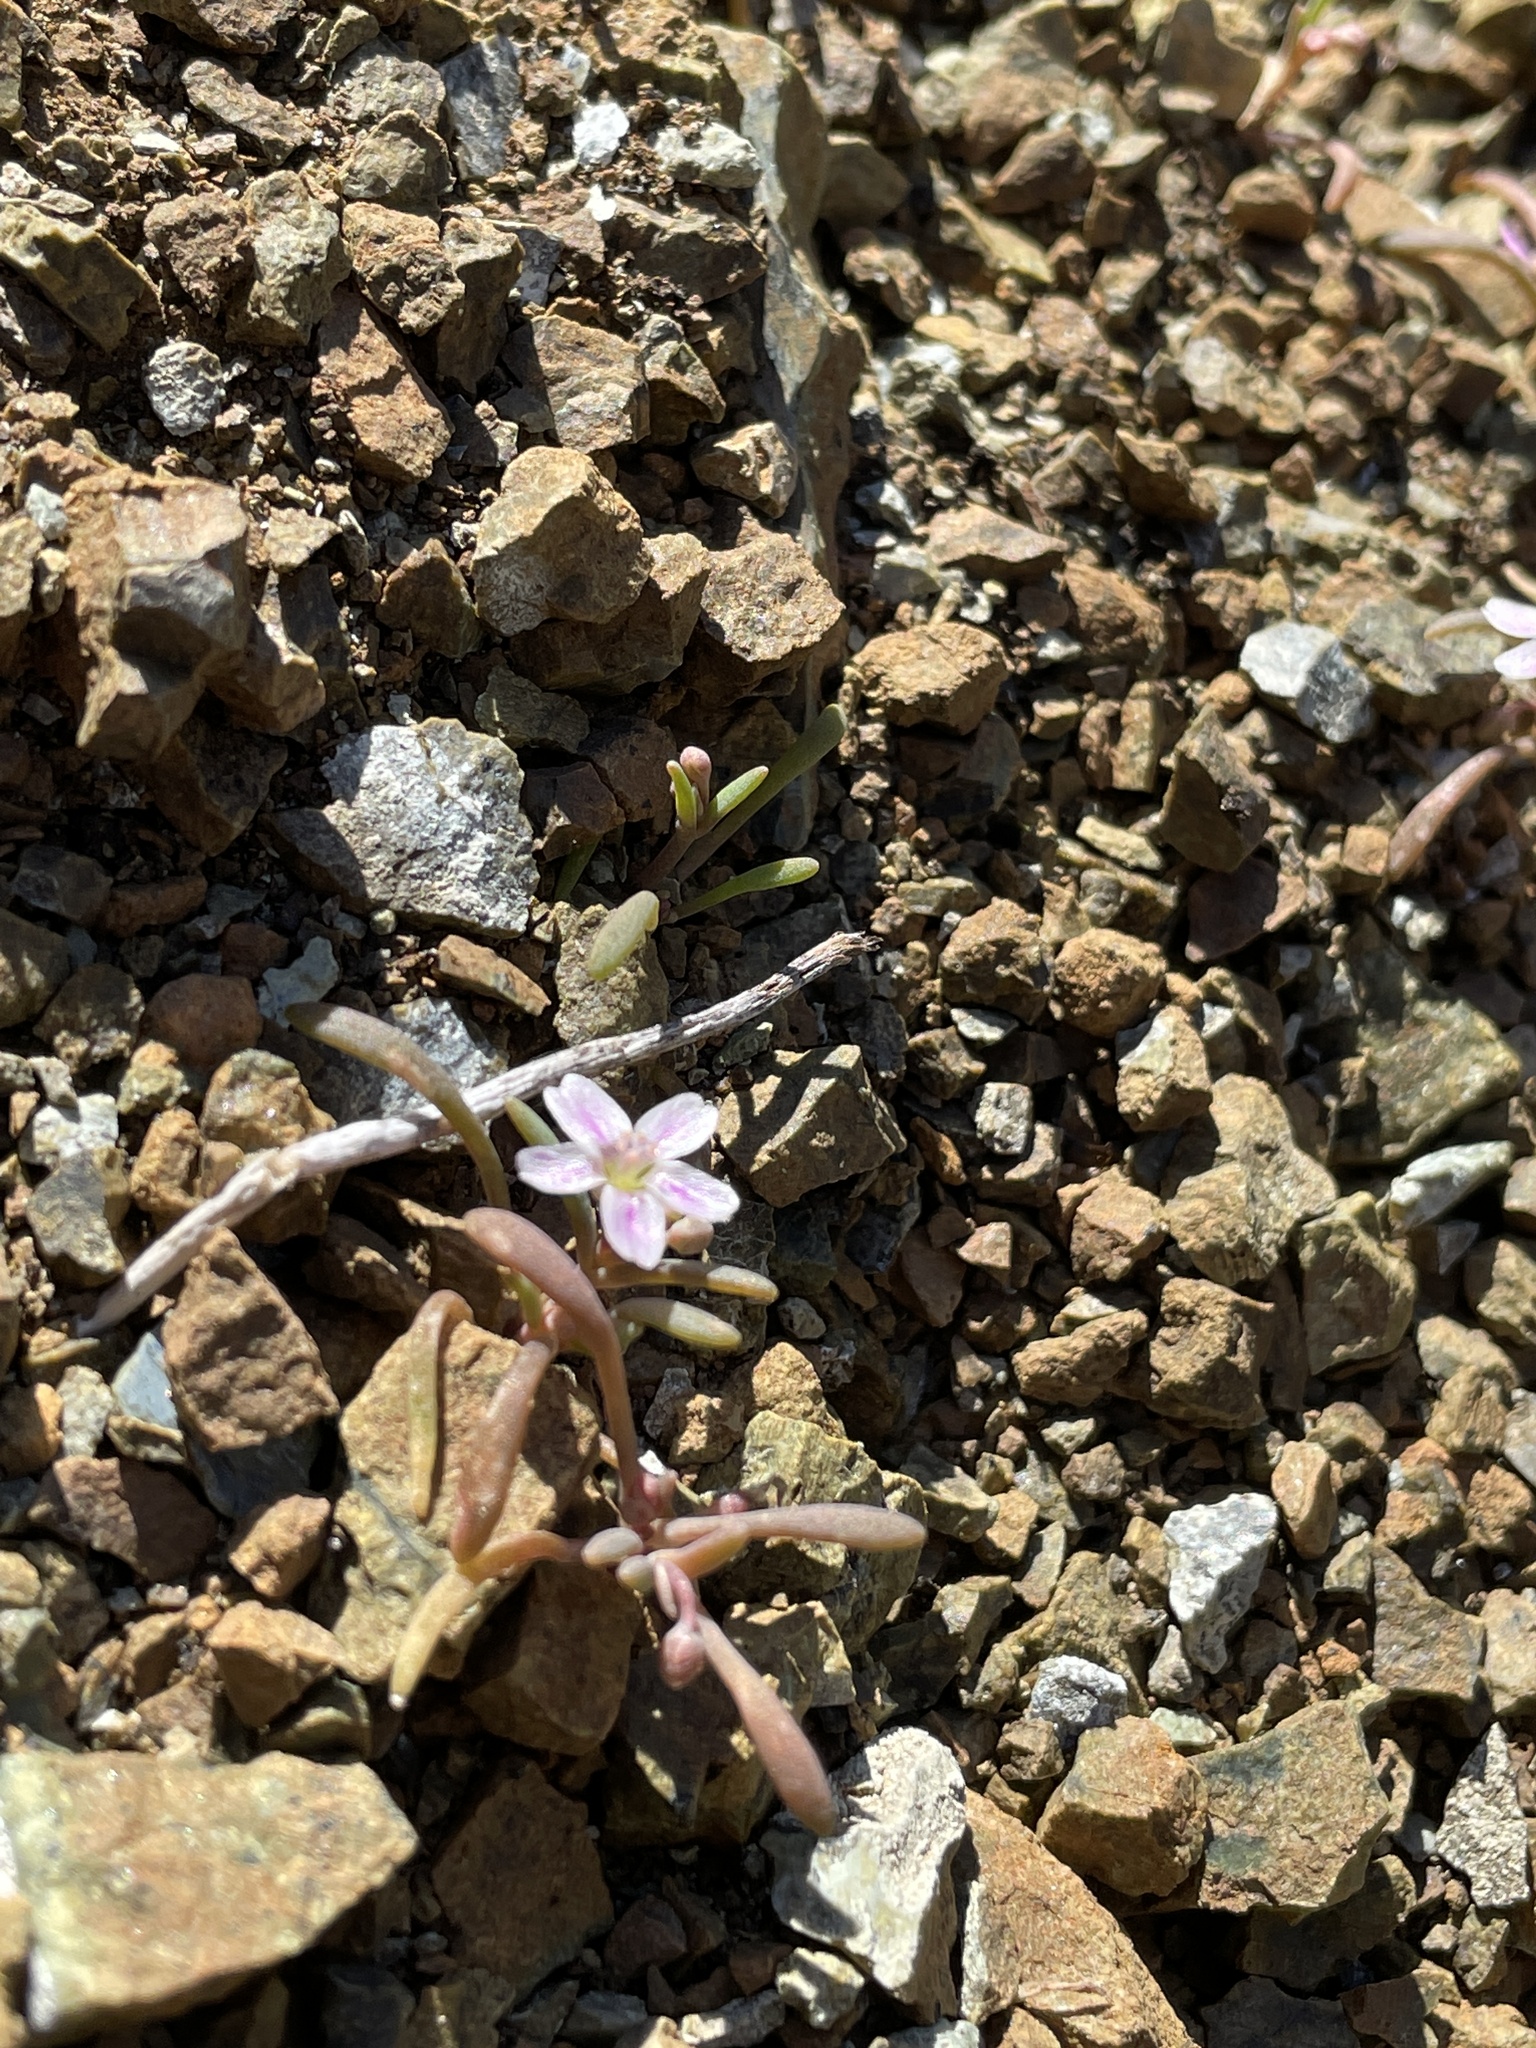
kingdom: Plantae
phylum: Tracheophyta
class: Magnoliopsida
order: Caryophyllales
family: Montiaceae
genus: Claytonia
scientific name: Claytonia exigua
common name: Pale spring beauty
